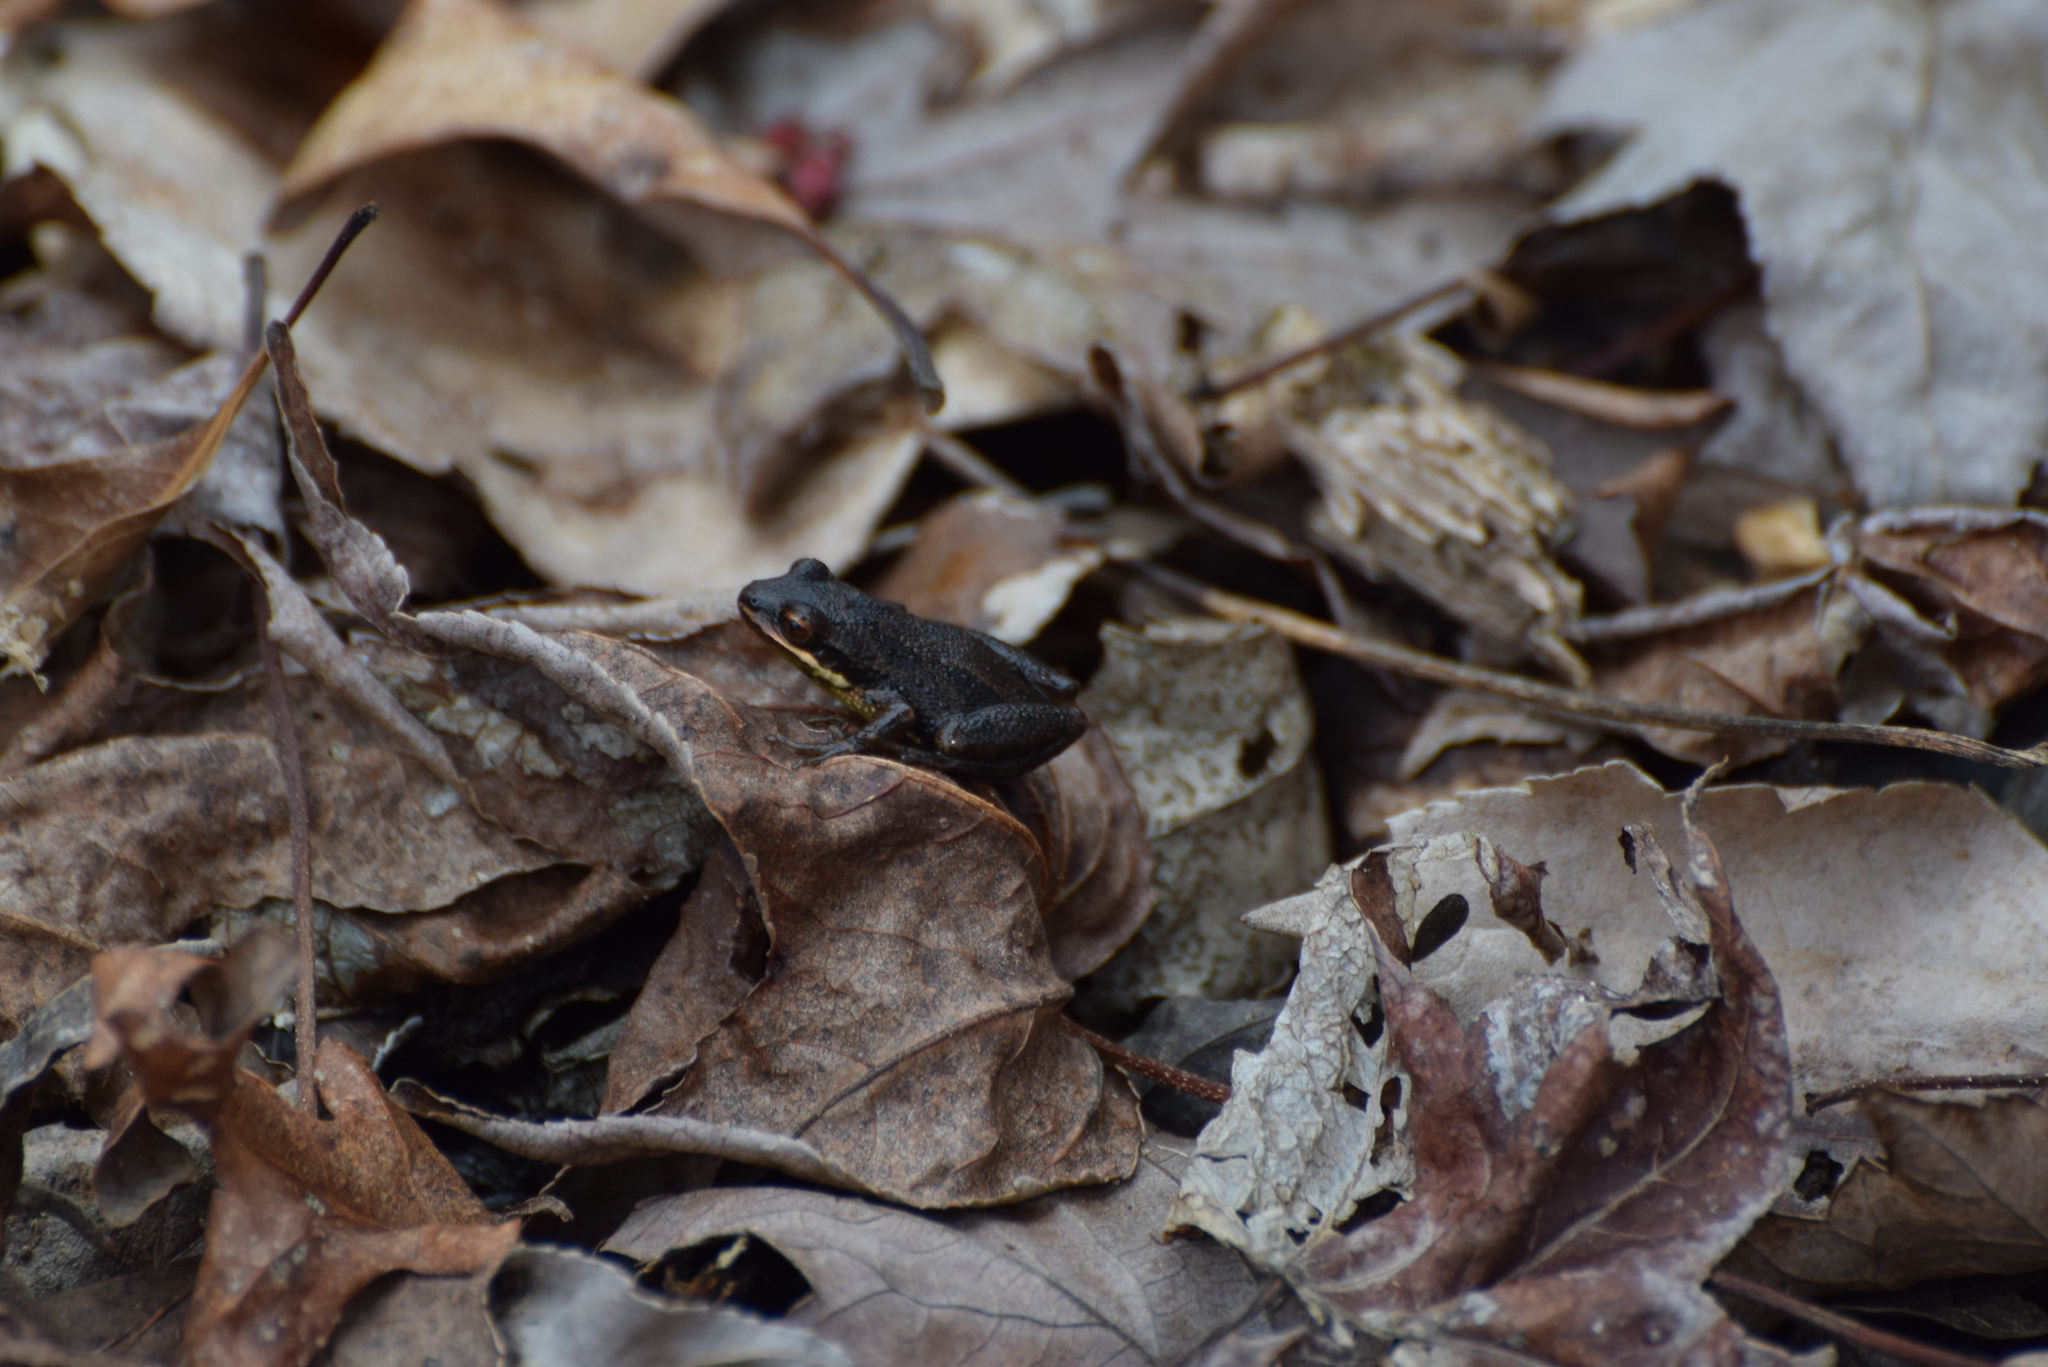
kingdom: Animalia
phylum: Chordata
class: Amphibia
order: Anura
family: Hylidae
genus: Pseudacris
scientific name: Pseudacris kalmi
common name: New jersey chorus frog
